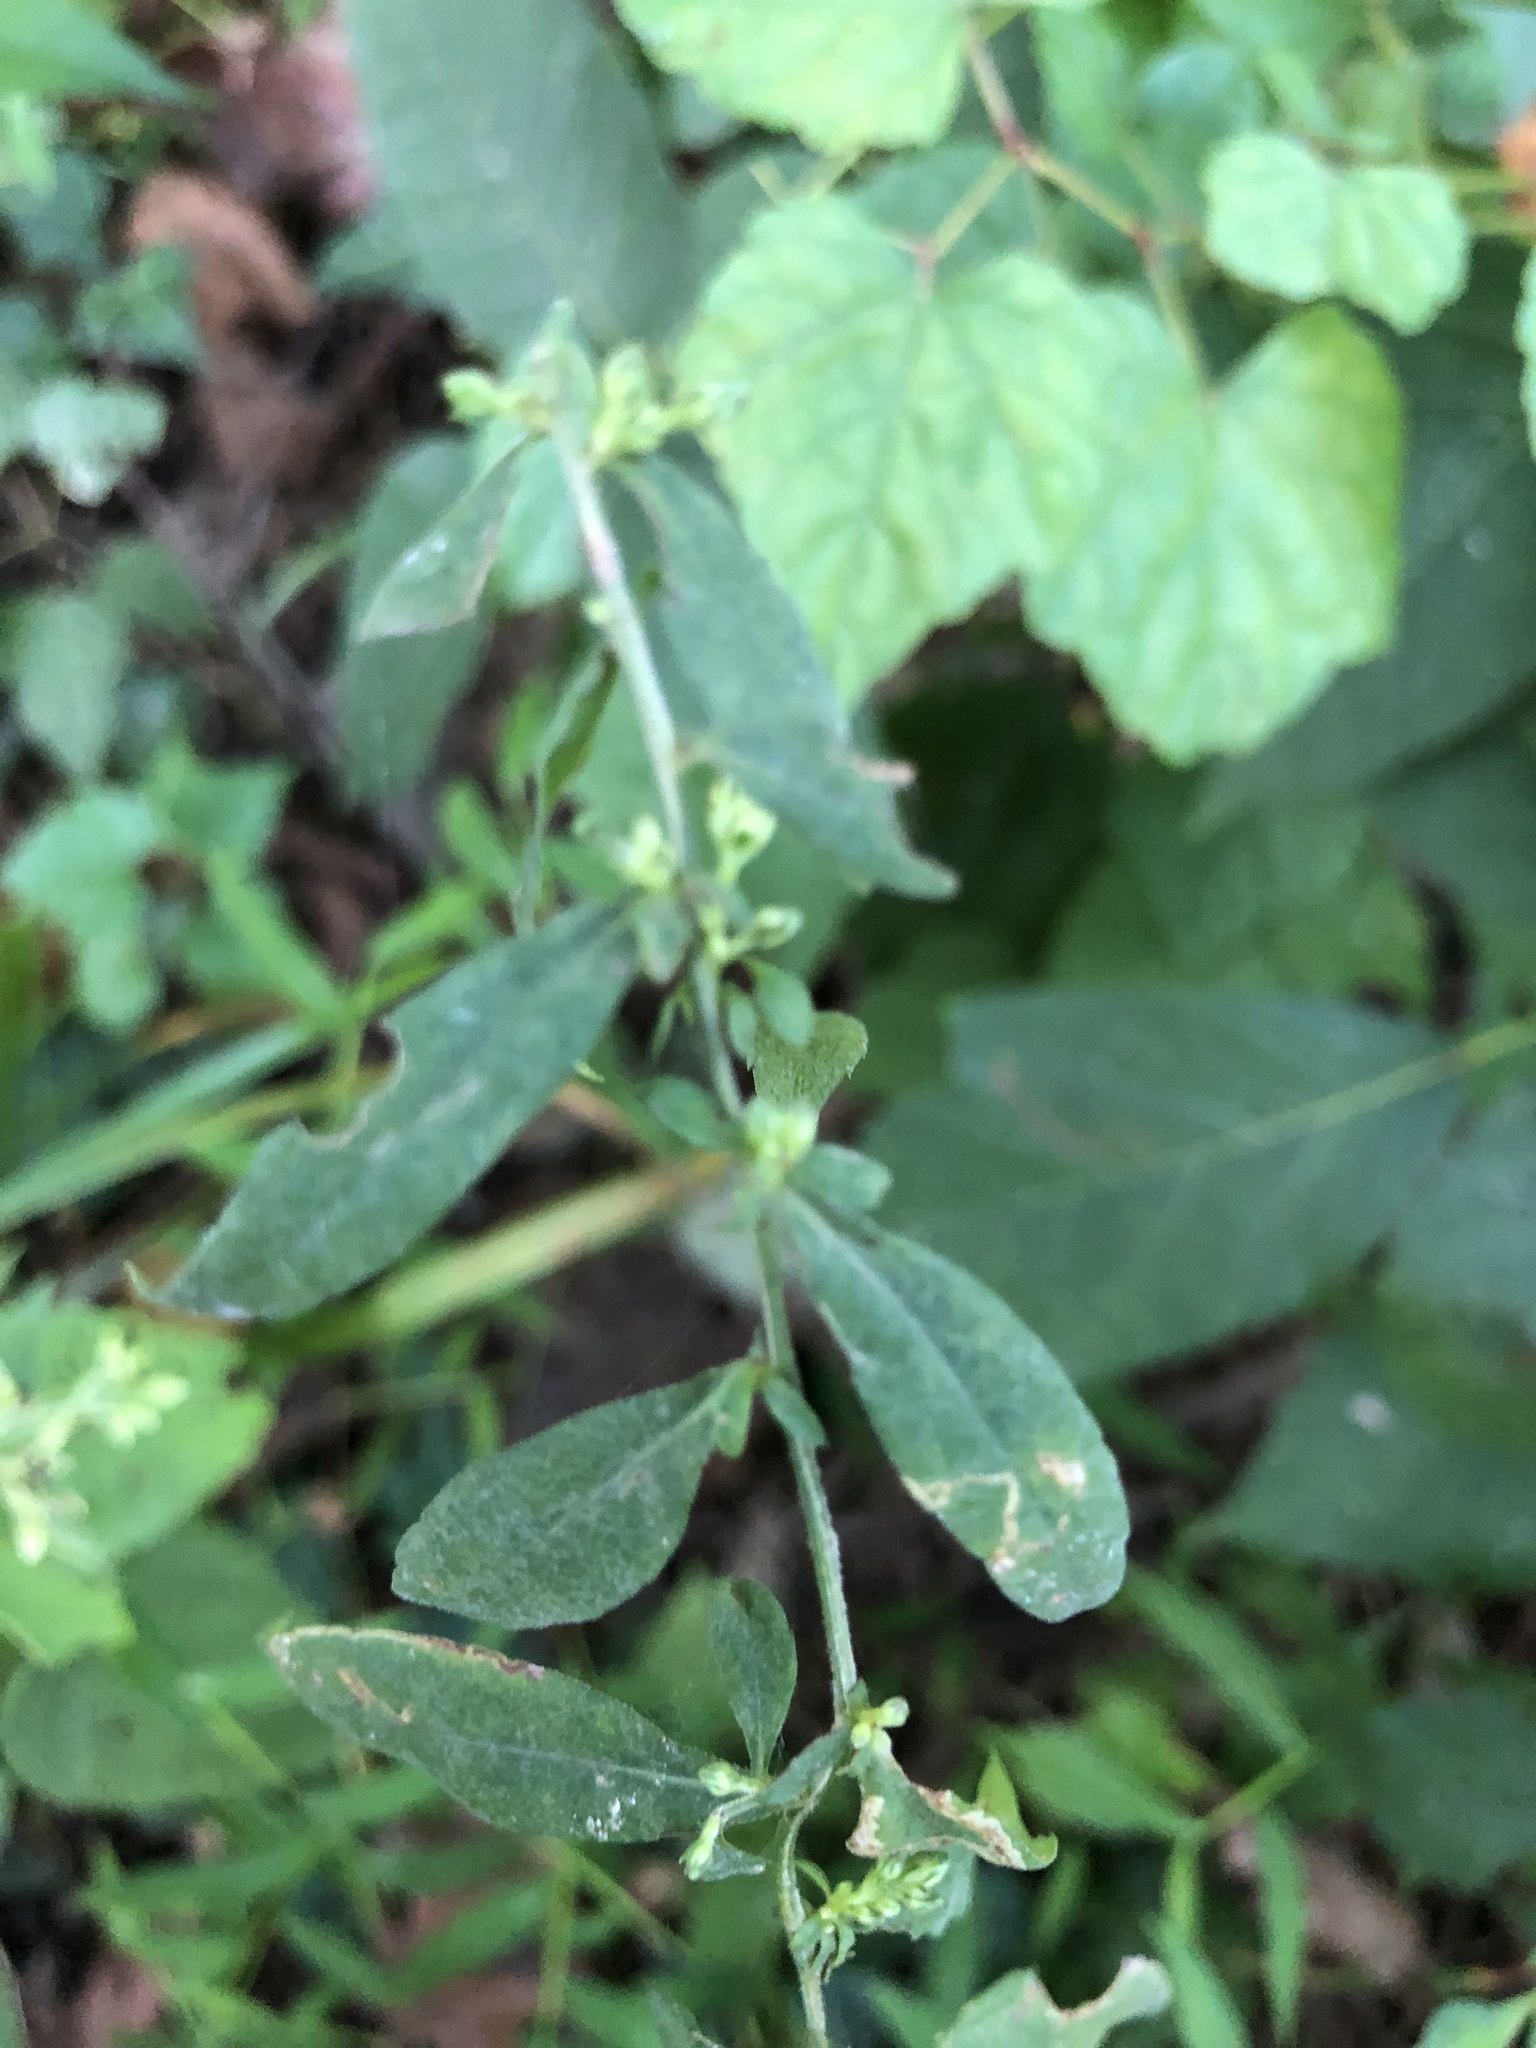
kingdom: Plantae
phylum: Tracheophyta
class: Magnoliopsida
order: Asterales
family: Asteraceae
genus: Symphyotrichum
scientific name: Symphyotrichum lateriflorum
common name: Calico aster
